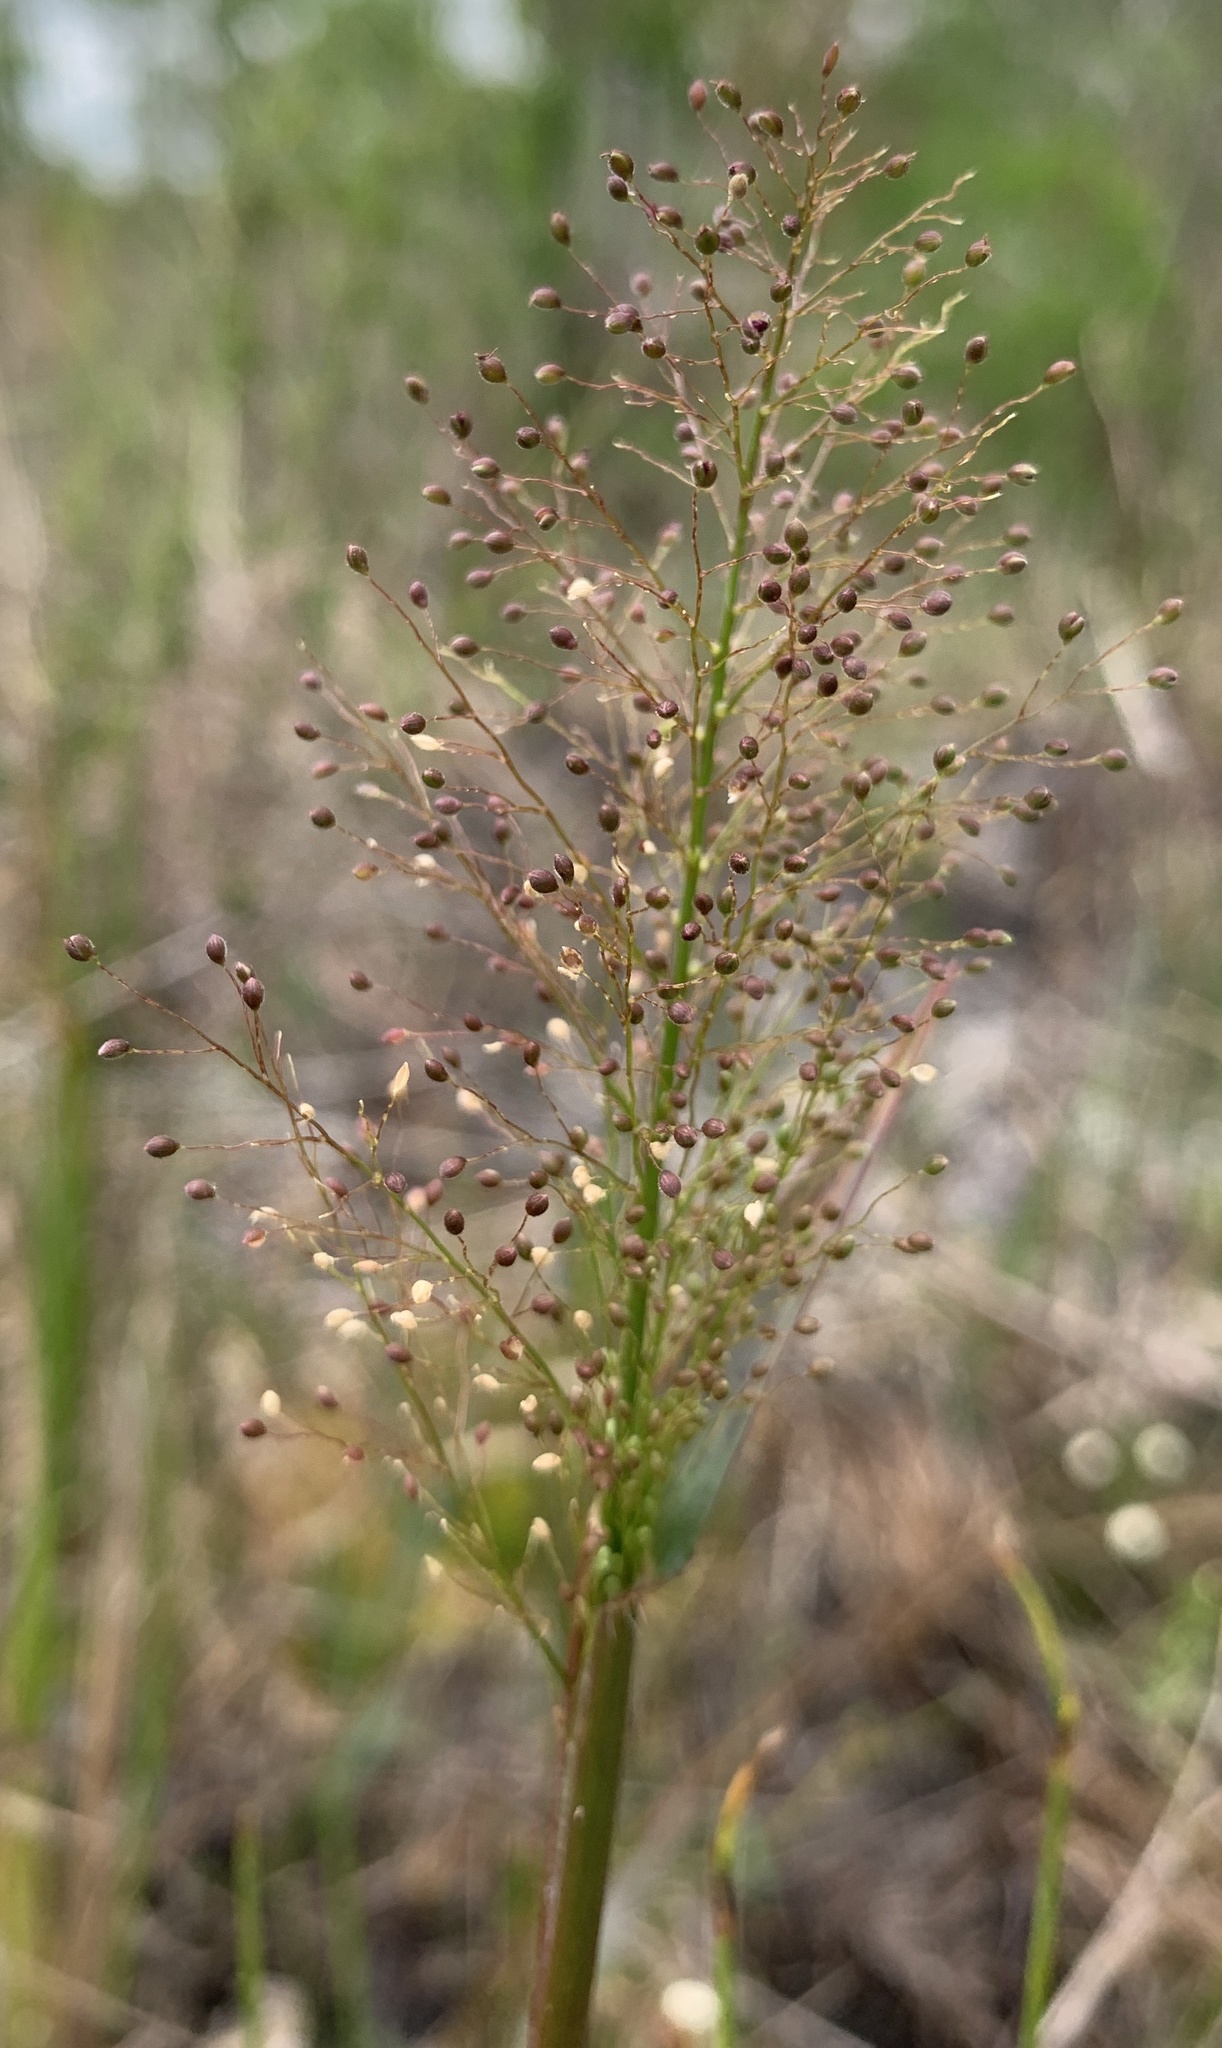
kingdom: Plantae
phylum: Tracheophyta
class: Liliopsida
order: Poales
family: Poaceae
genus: Dichanthelium
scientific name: Dichanthelium erectifolium
